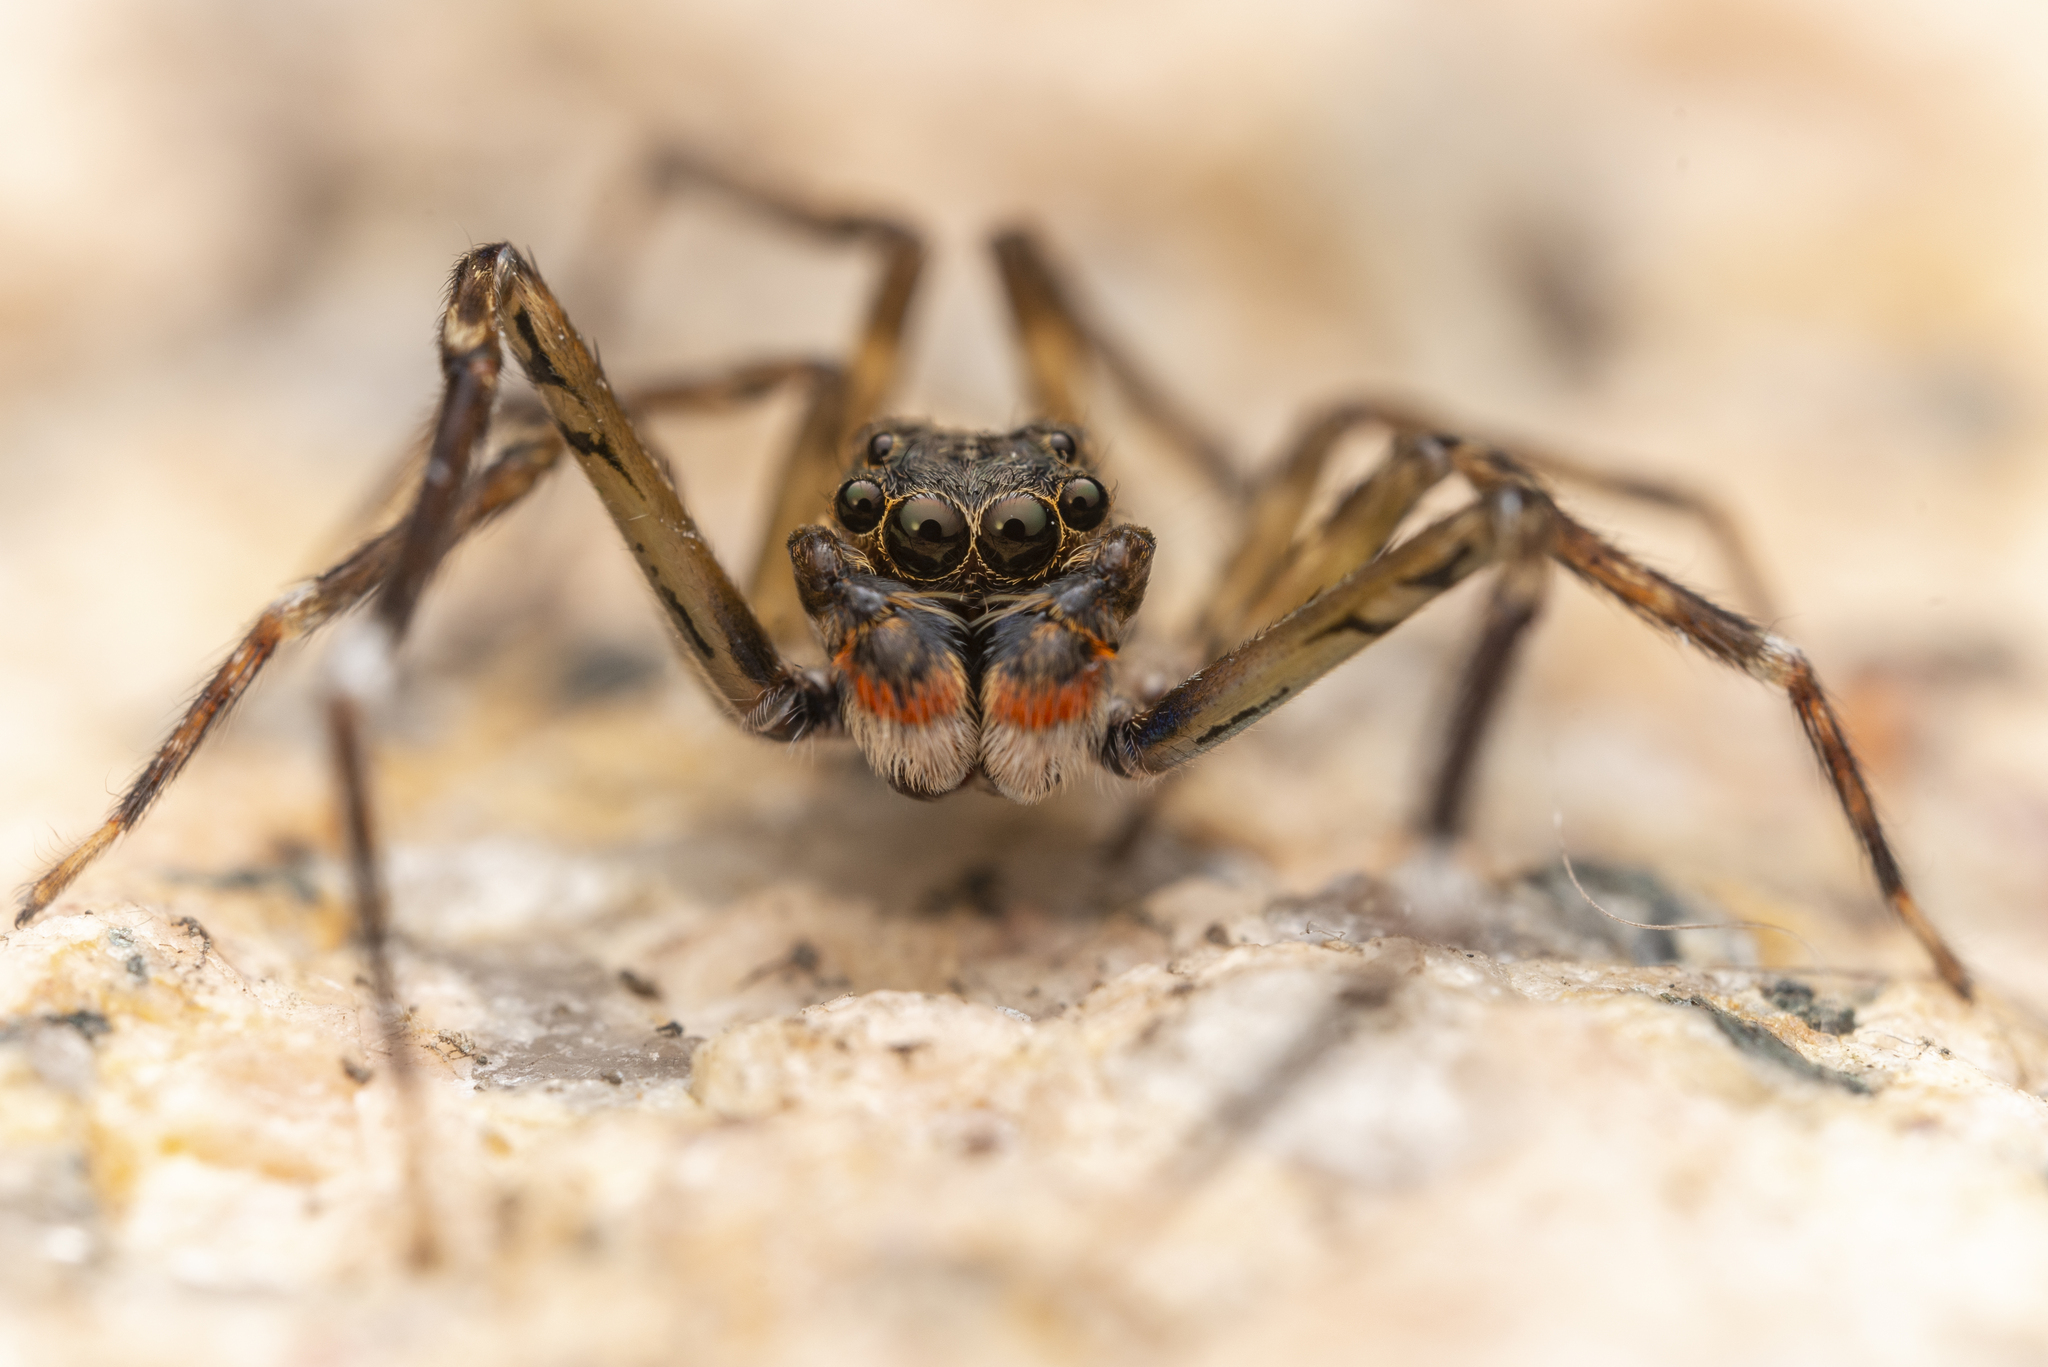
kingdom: Animalia
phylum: Arthropoda
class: Arachnida
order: Araneae
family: Salticidae
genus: Spartaeus
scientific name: Spartaeus zhangi
